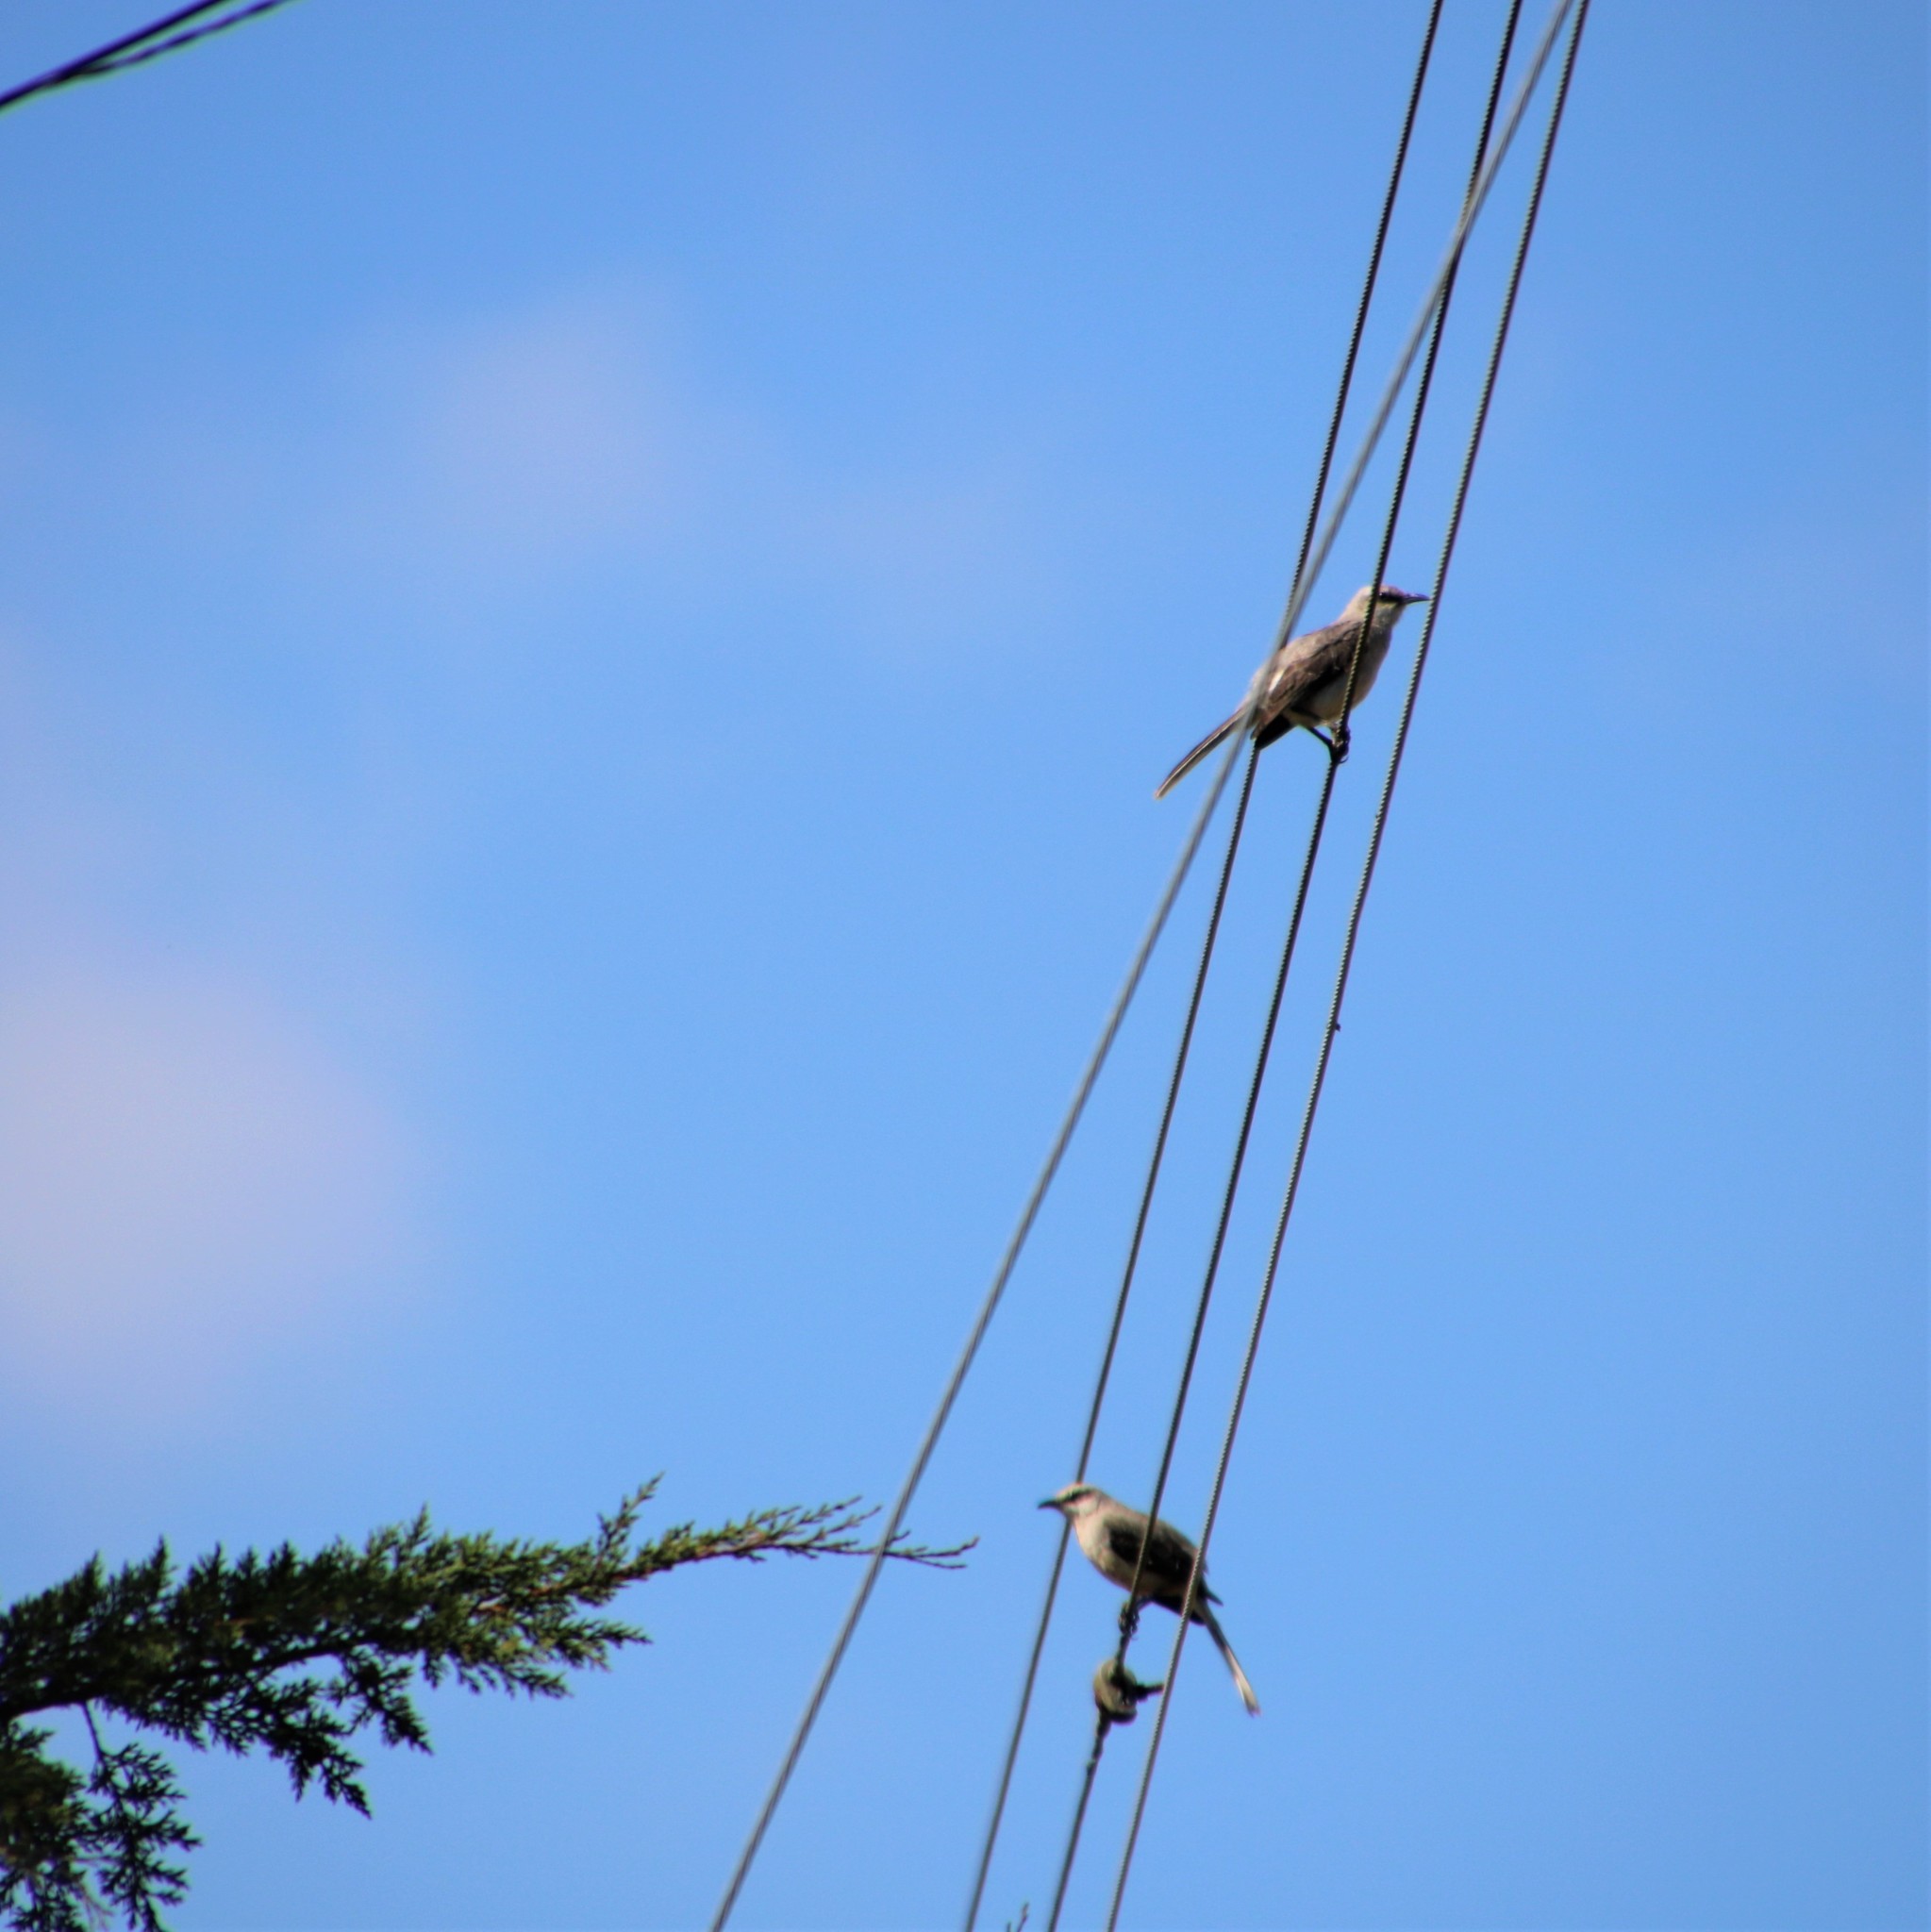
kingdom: Animalia
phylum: Chordata
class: Aves
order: Passeriformes
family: Mimidae
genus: Mimus
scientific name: Mimus gilvus
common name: Tropical mockingbird
